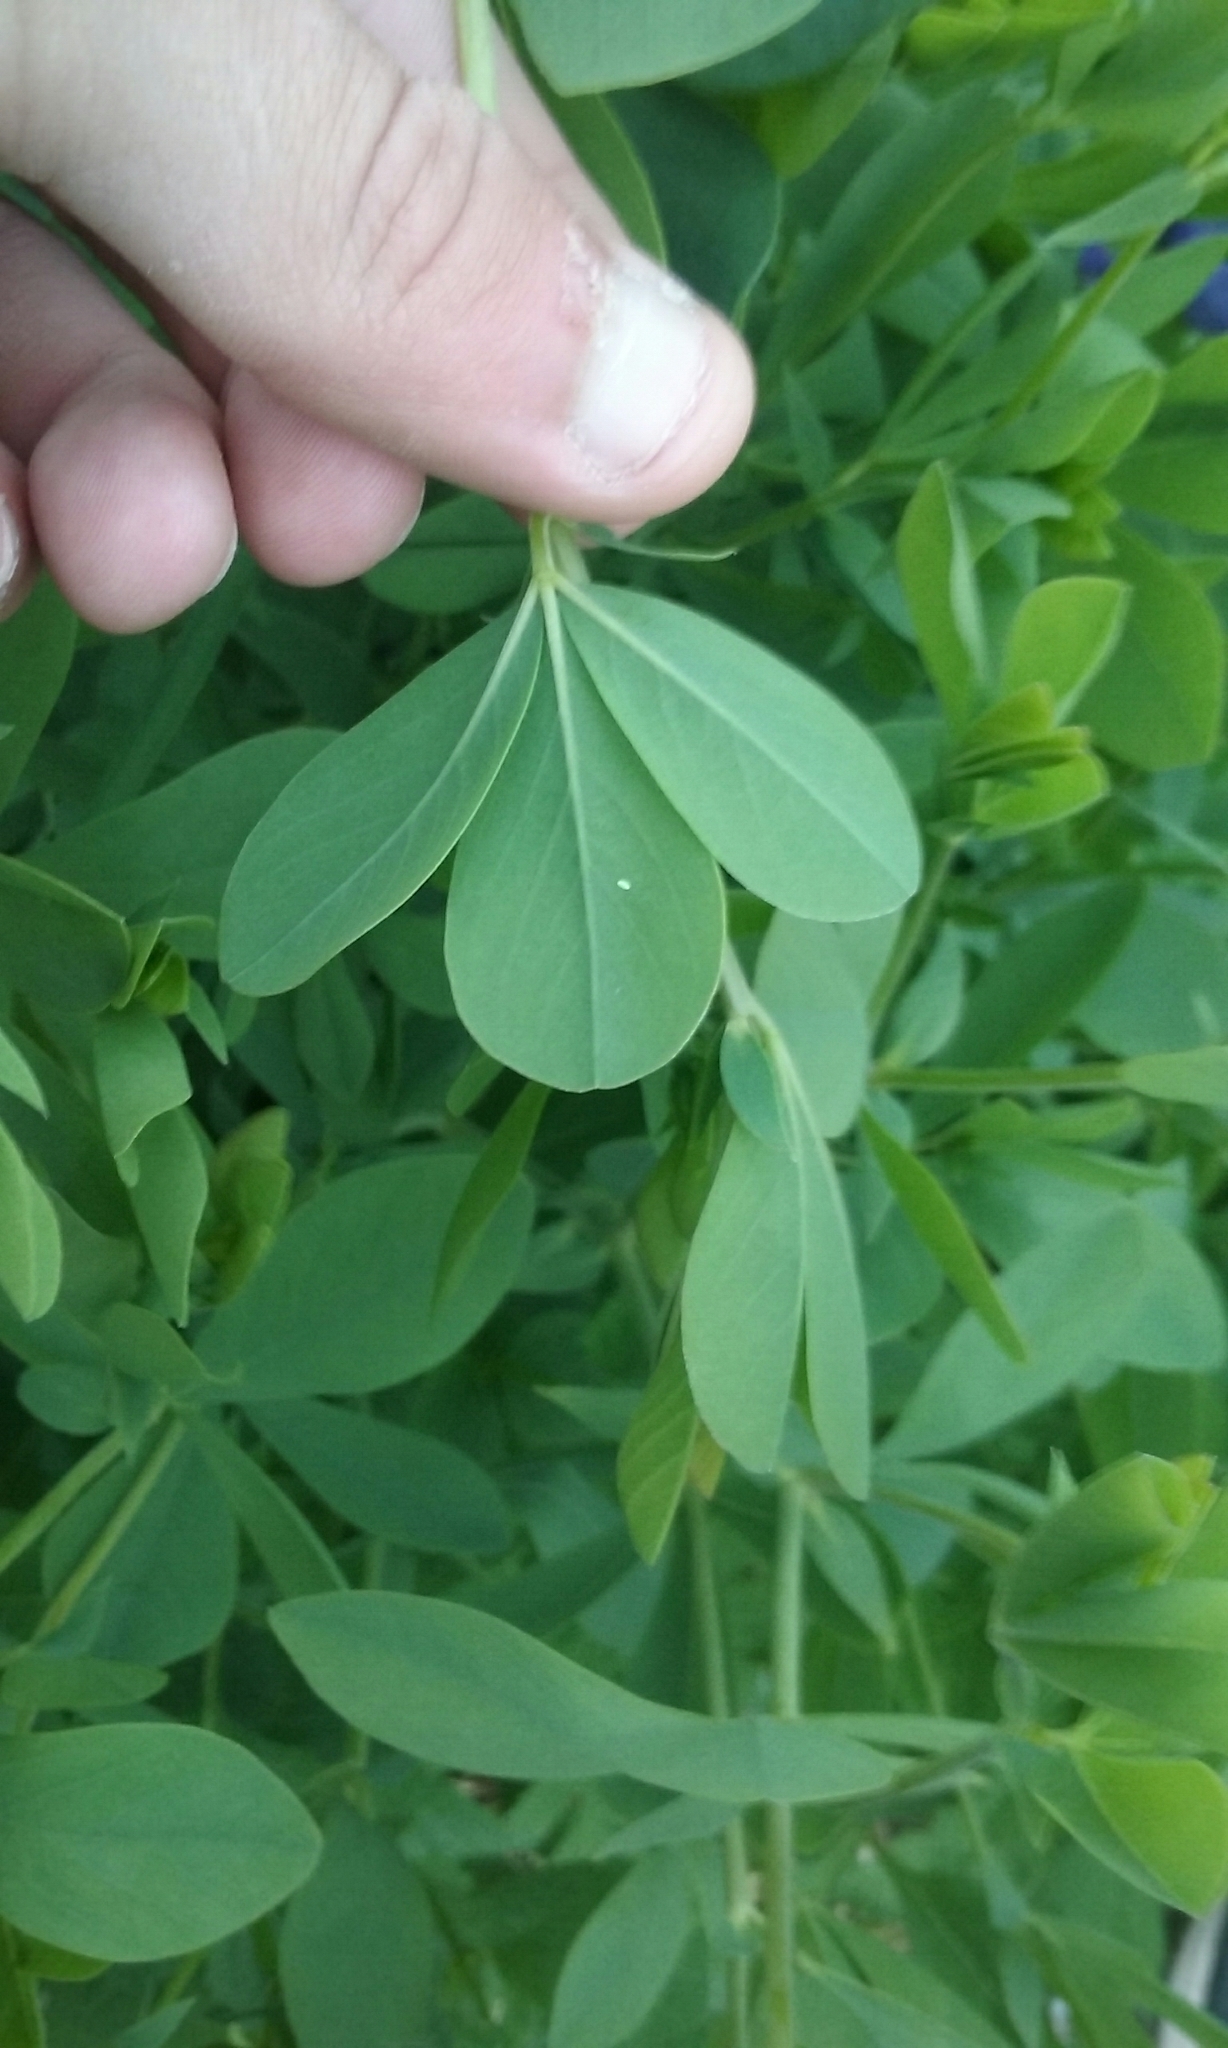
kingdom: Plantae
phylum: Tracheophyta
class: Magnoliopsida
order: Fabales
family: Fabaceae
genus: Baptisia
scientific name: Baptisia australis
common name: Blue false indigo
